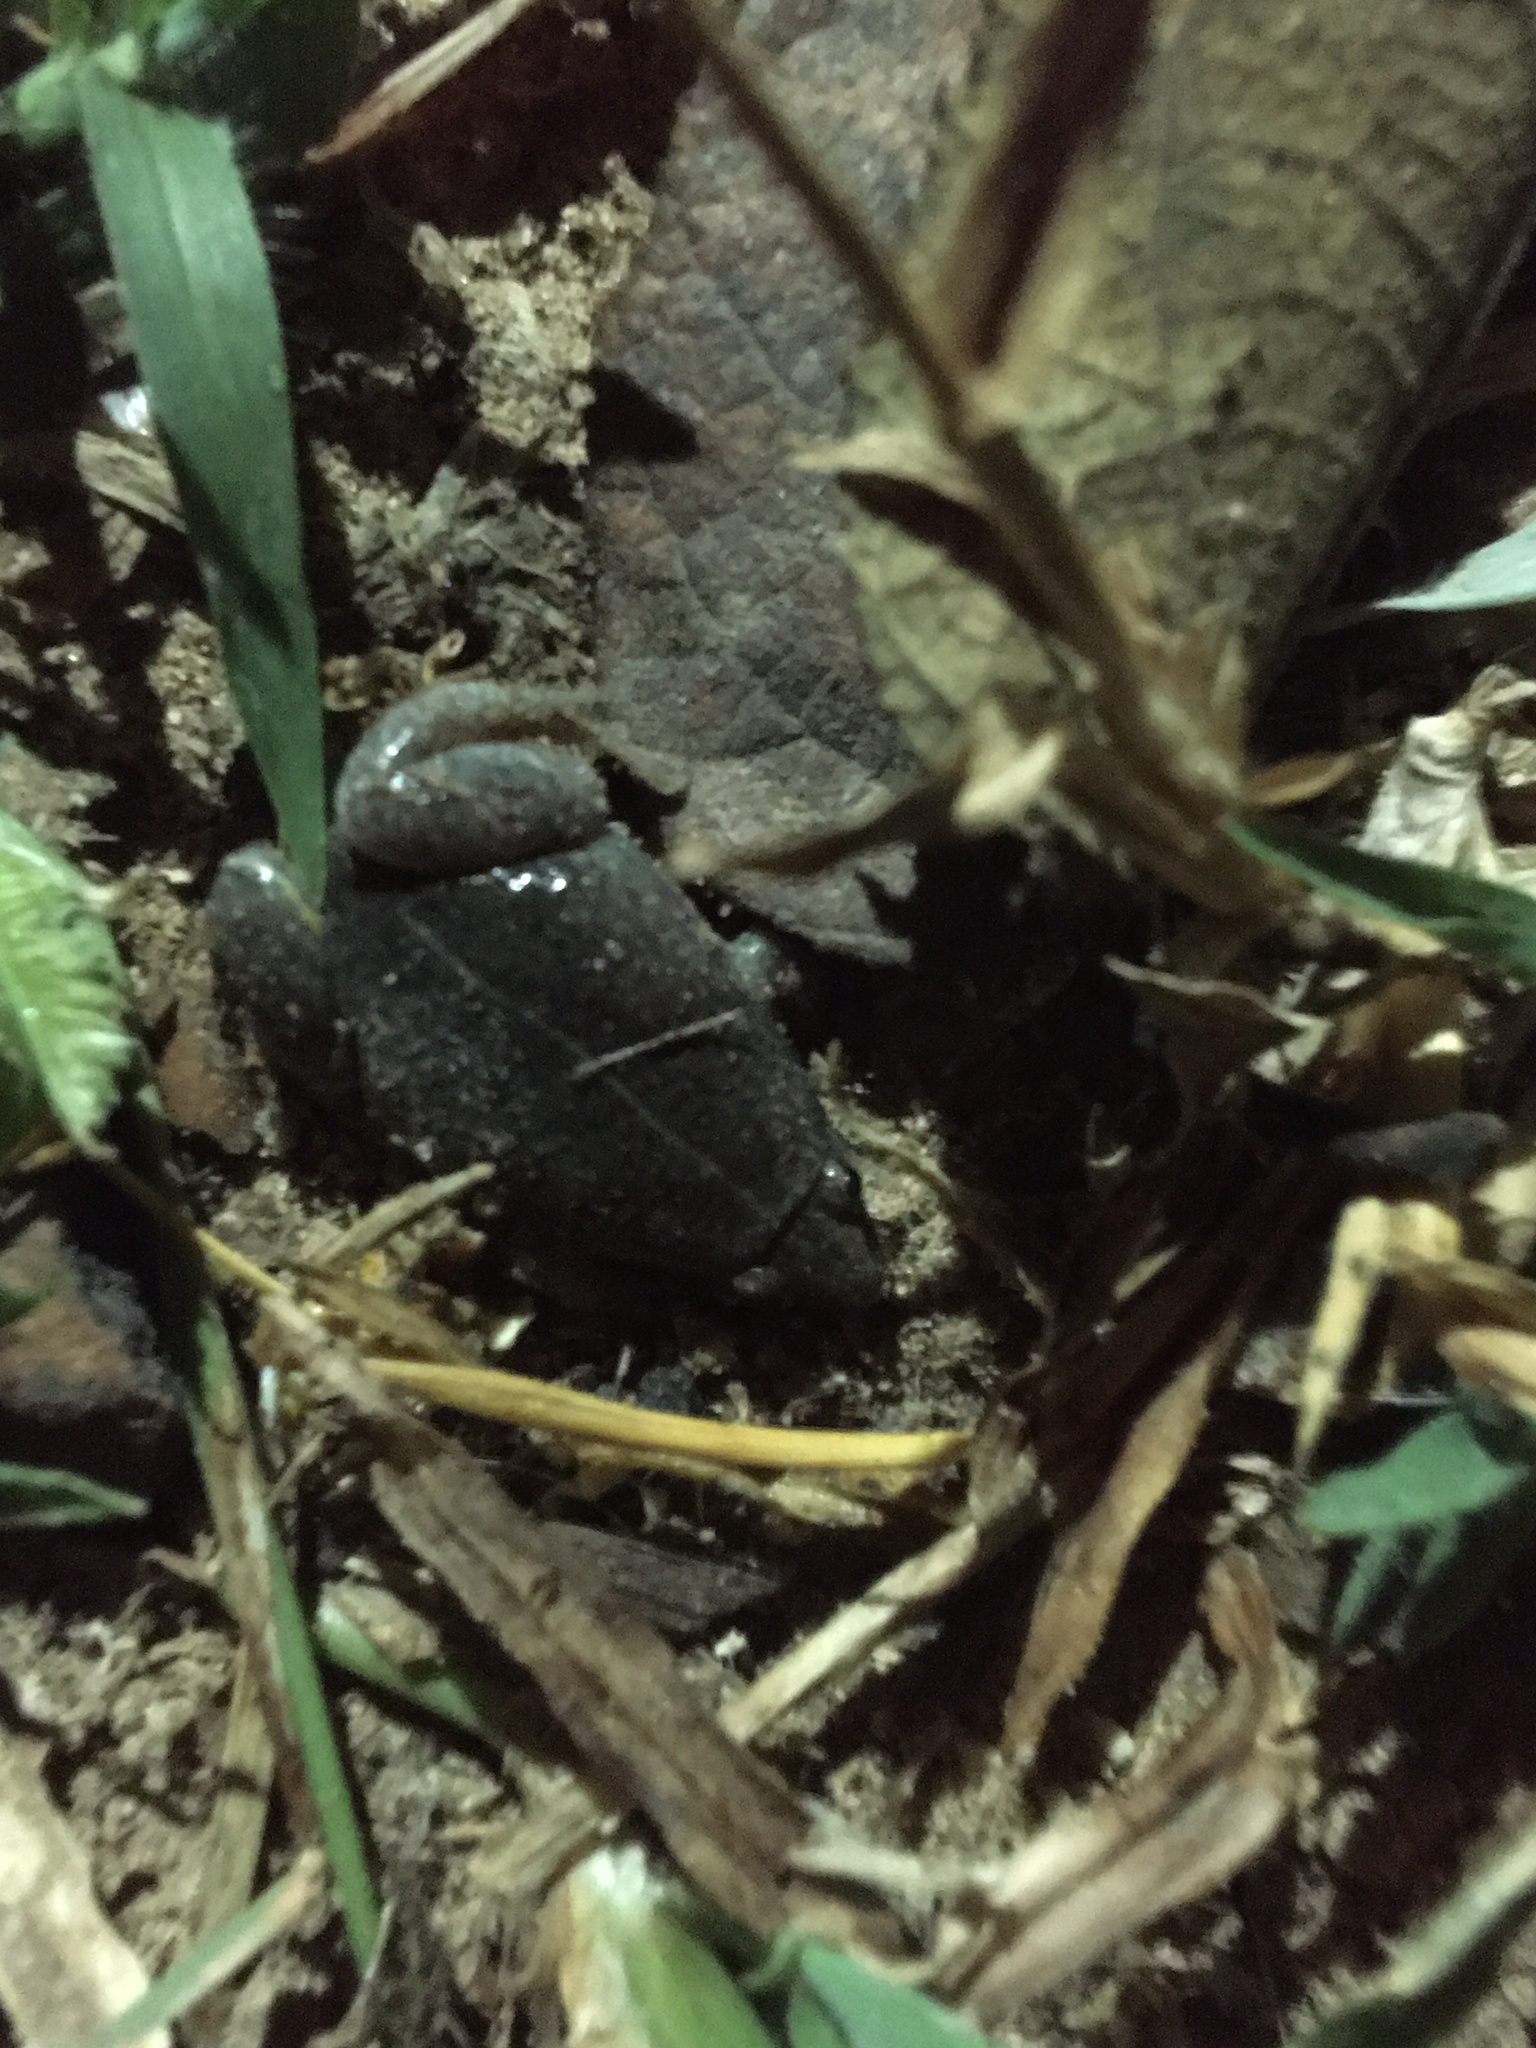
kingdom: Animalia
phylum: Chordata
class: Amphibia
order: Anura
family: Microhylidae
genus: Elachistocleis
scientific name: Elachistocleis bicolor
